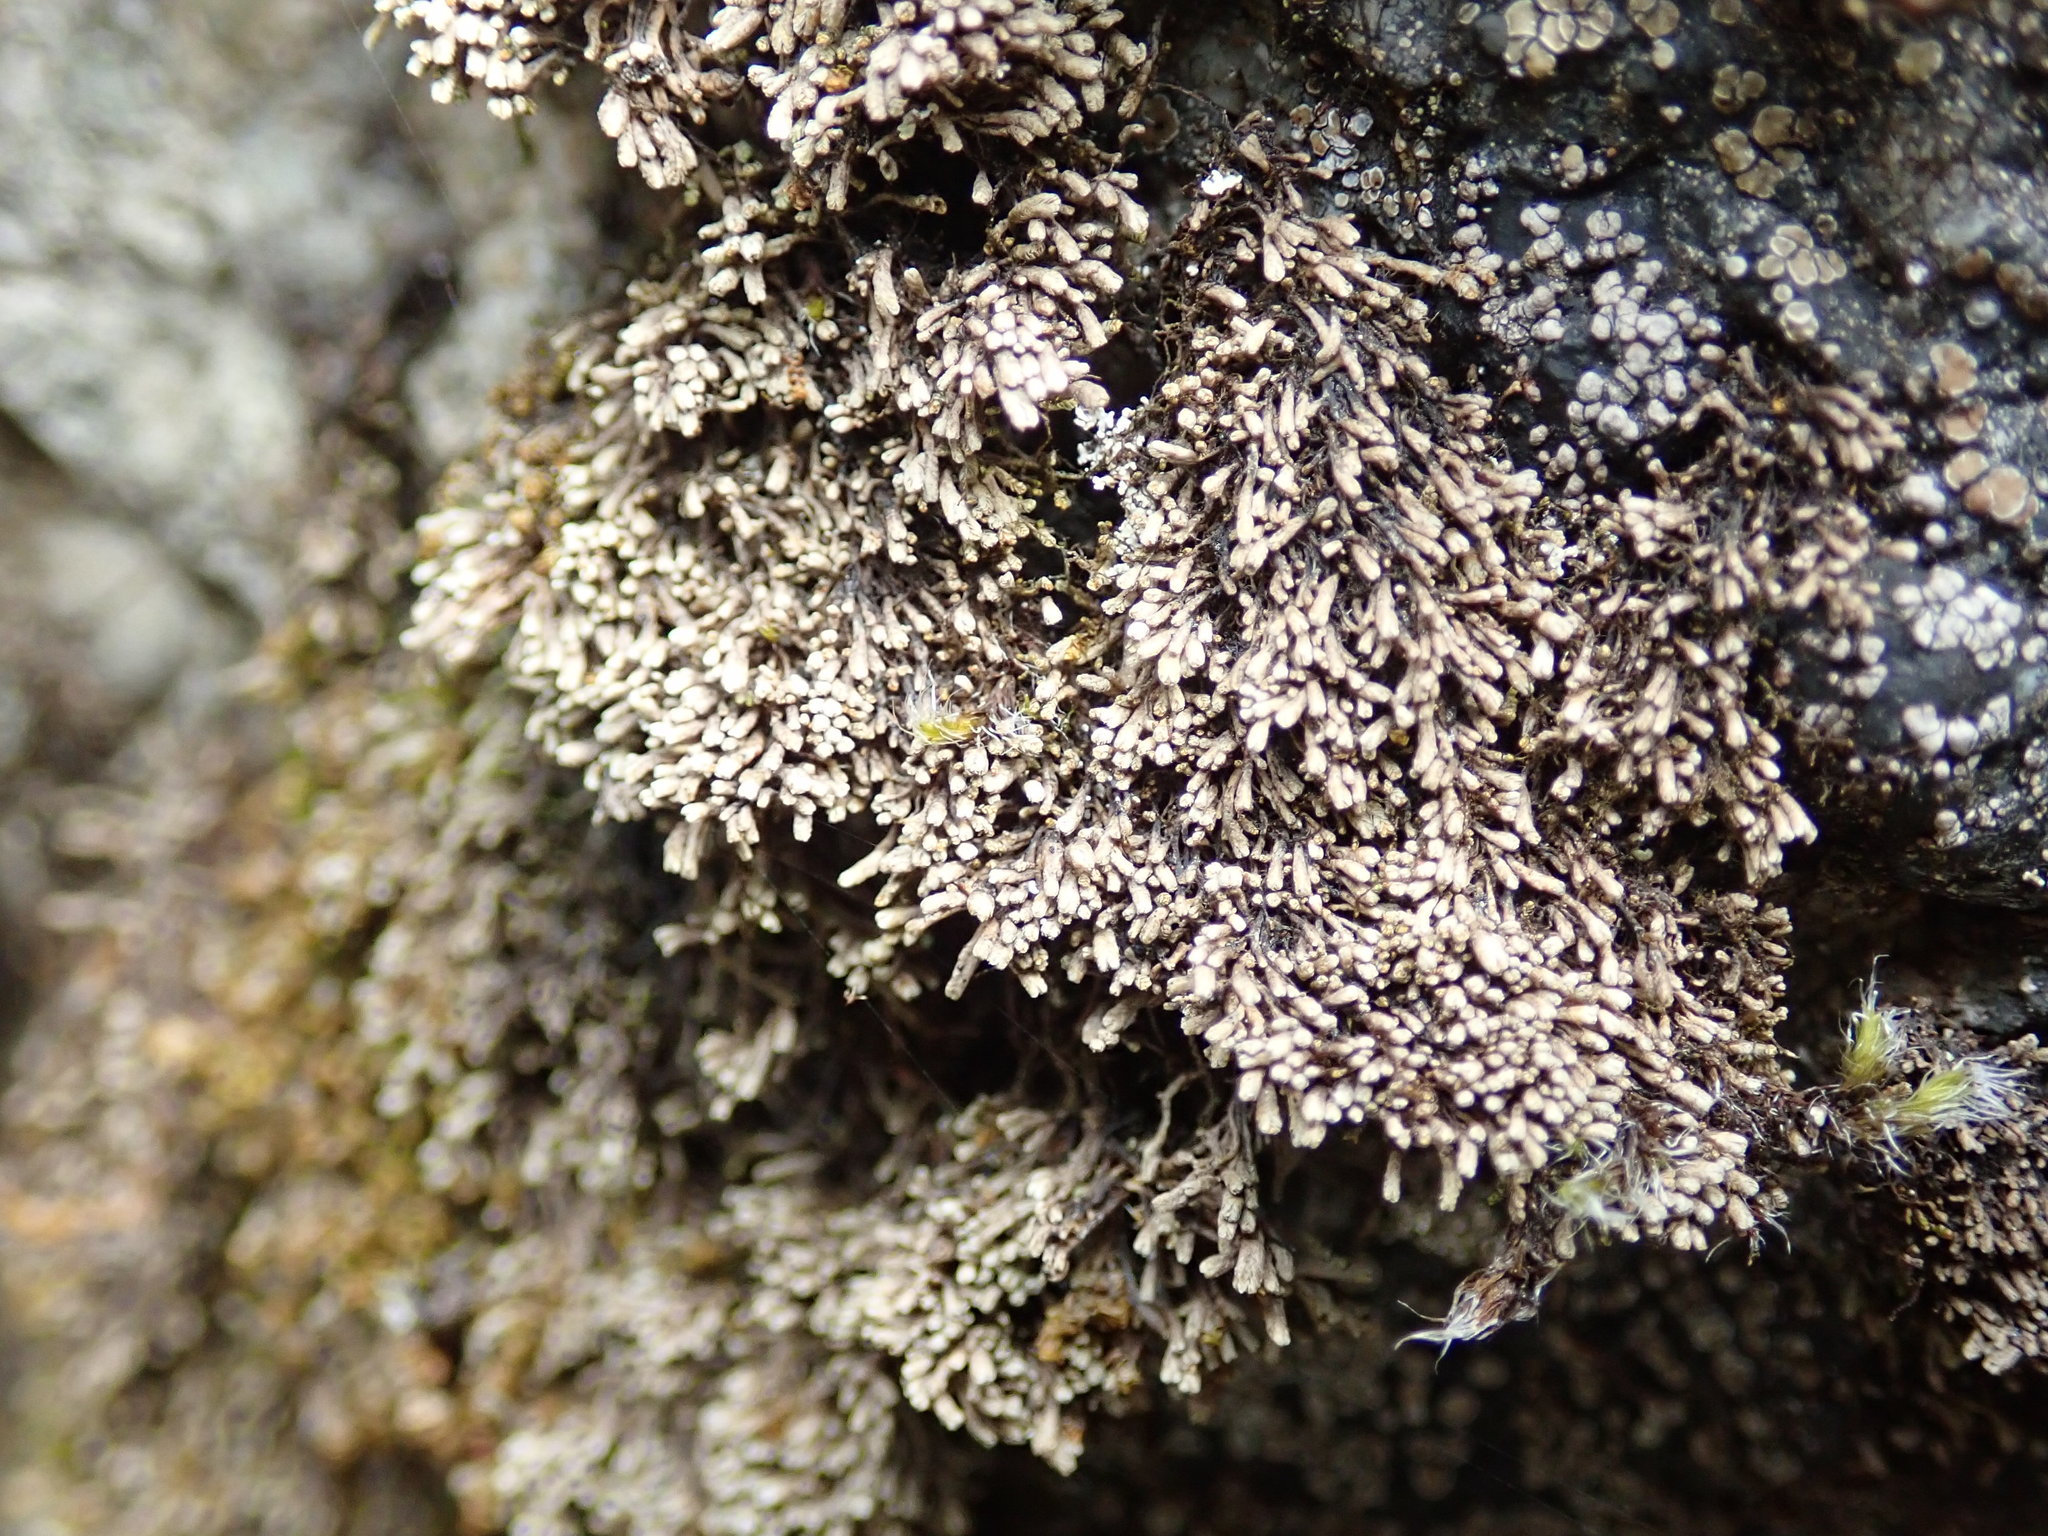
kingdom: Plantae
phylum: Marchantiophyta
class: Jungermanniopsida
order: Jungermanniales
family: Gymnomitriaceae
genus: Gymnomitrion
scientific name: Gymnomitrion obtusum
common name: White frostwort
